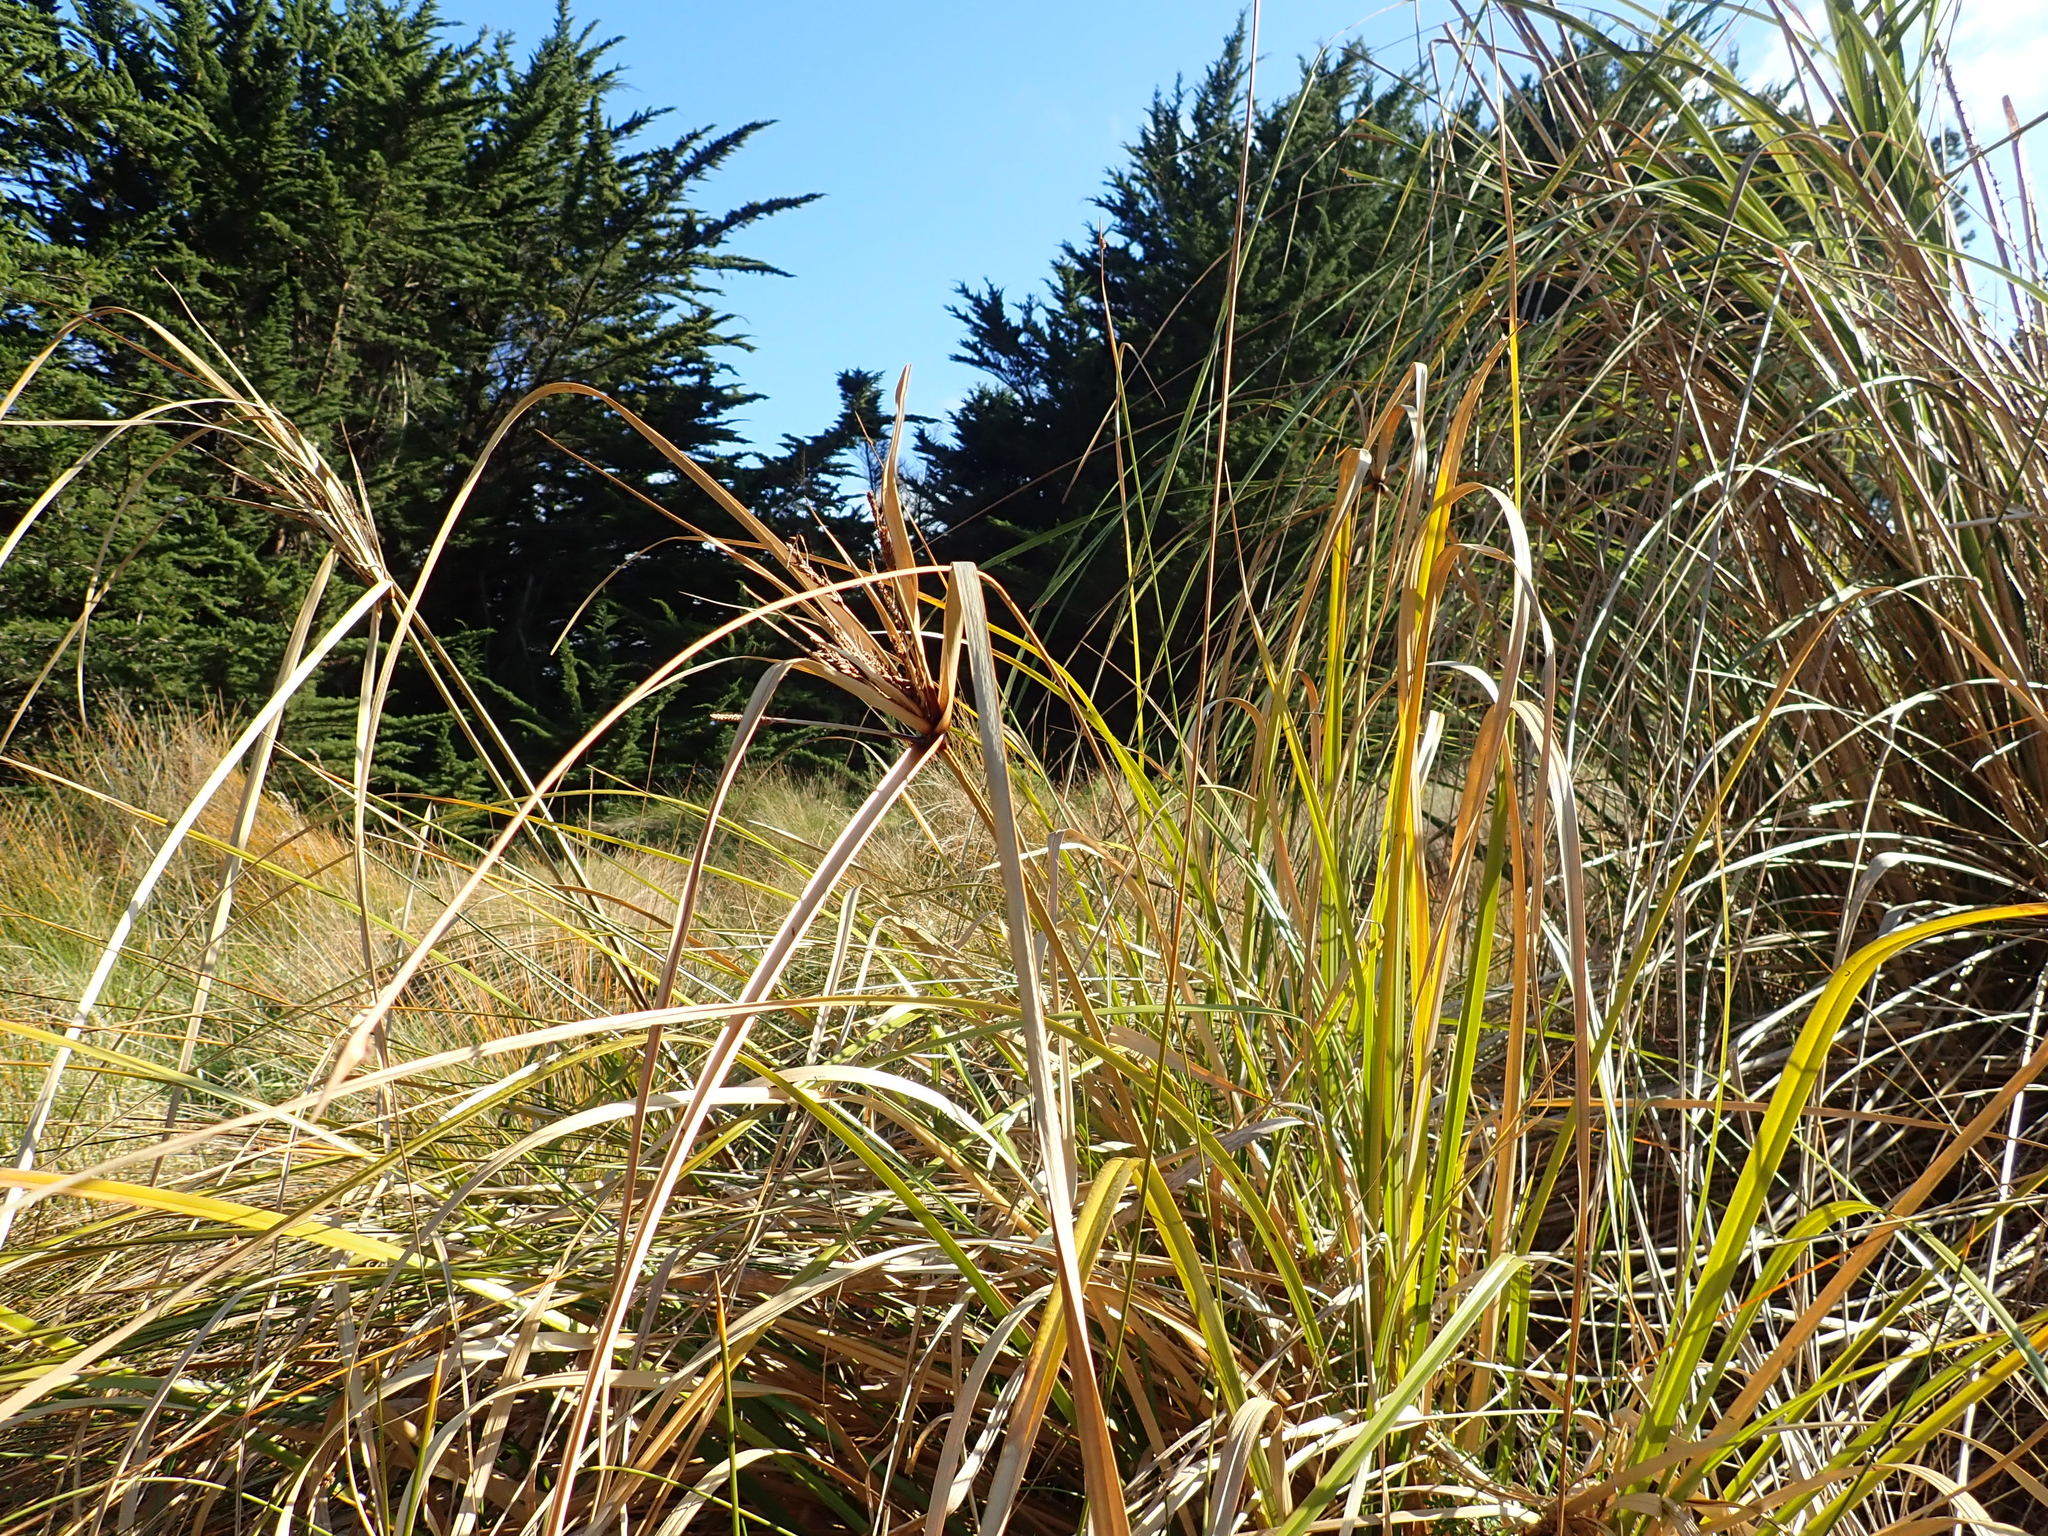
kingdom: Plantae
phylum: Tracheophyta
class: Liliopsida
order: Poales
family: Cyperaceae
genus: Cyperus
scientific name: Cyperus ustulatus
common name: Giant umbrella-sedge
